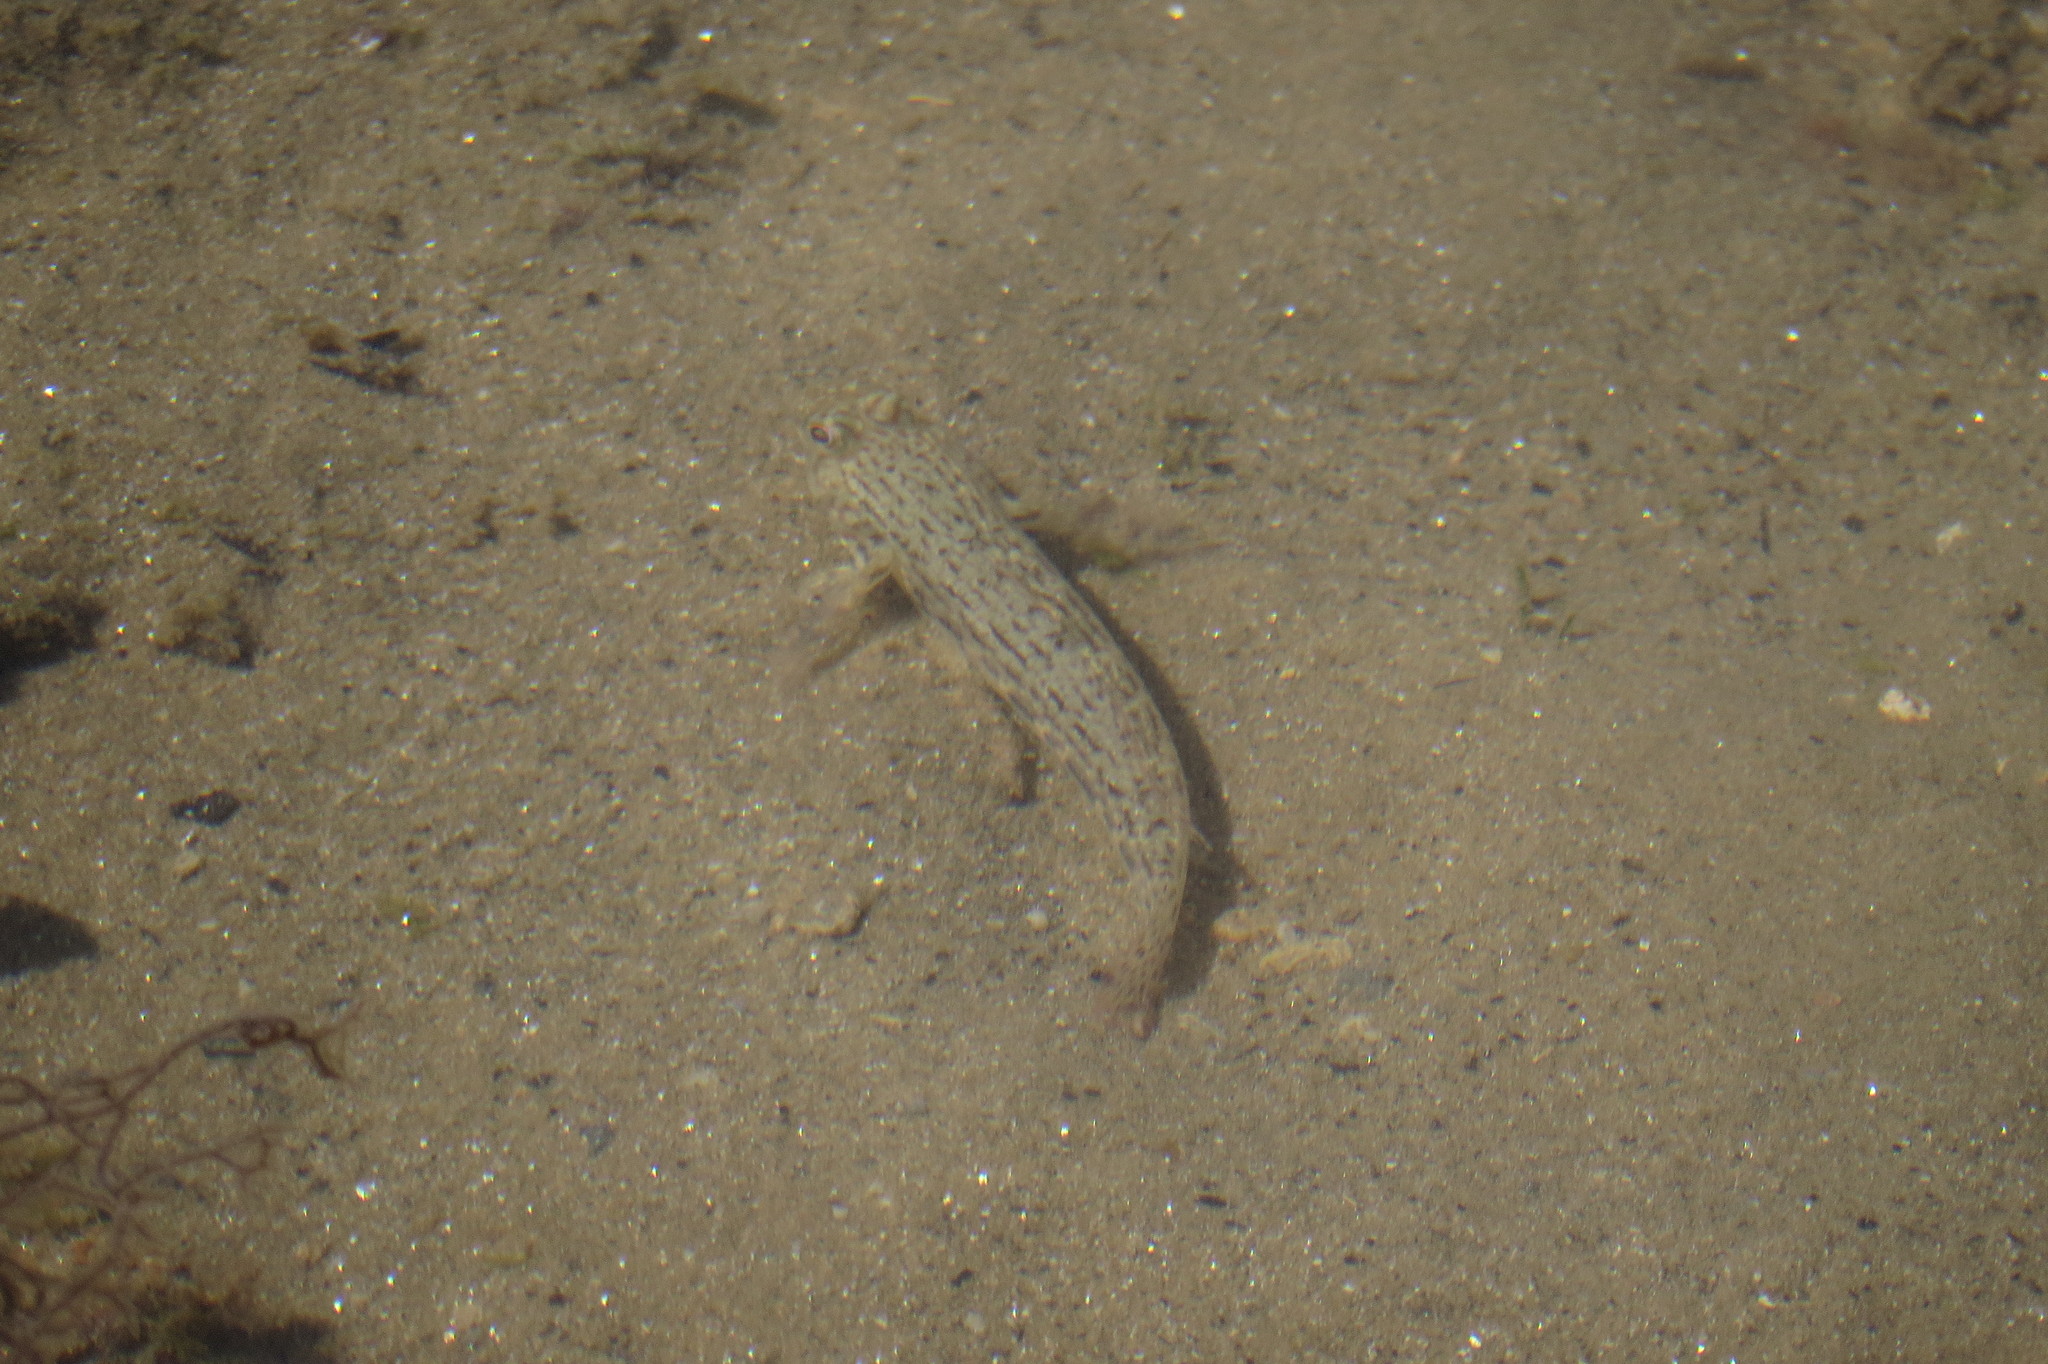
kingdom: Animalia
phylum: Chordata
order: Perciformes
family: Gobiidae
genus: Istigobius
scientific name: Istigobius ornatus
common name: Ornate goby
